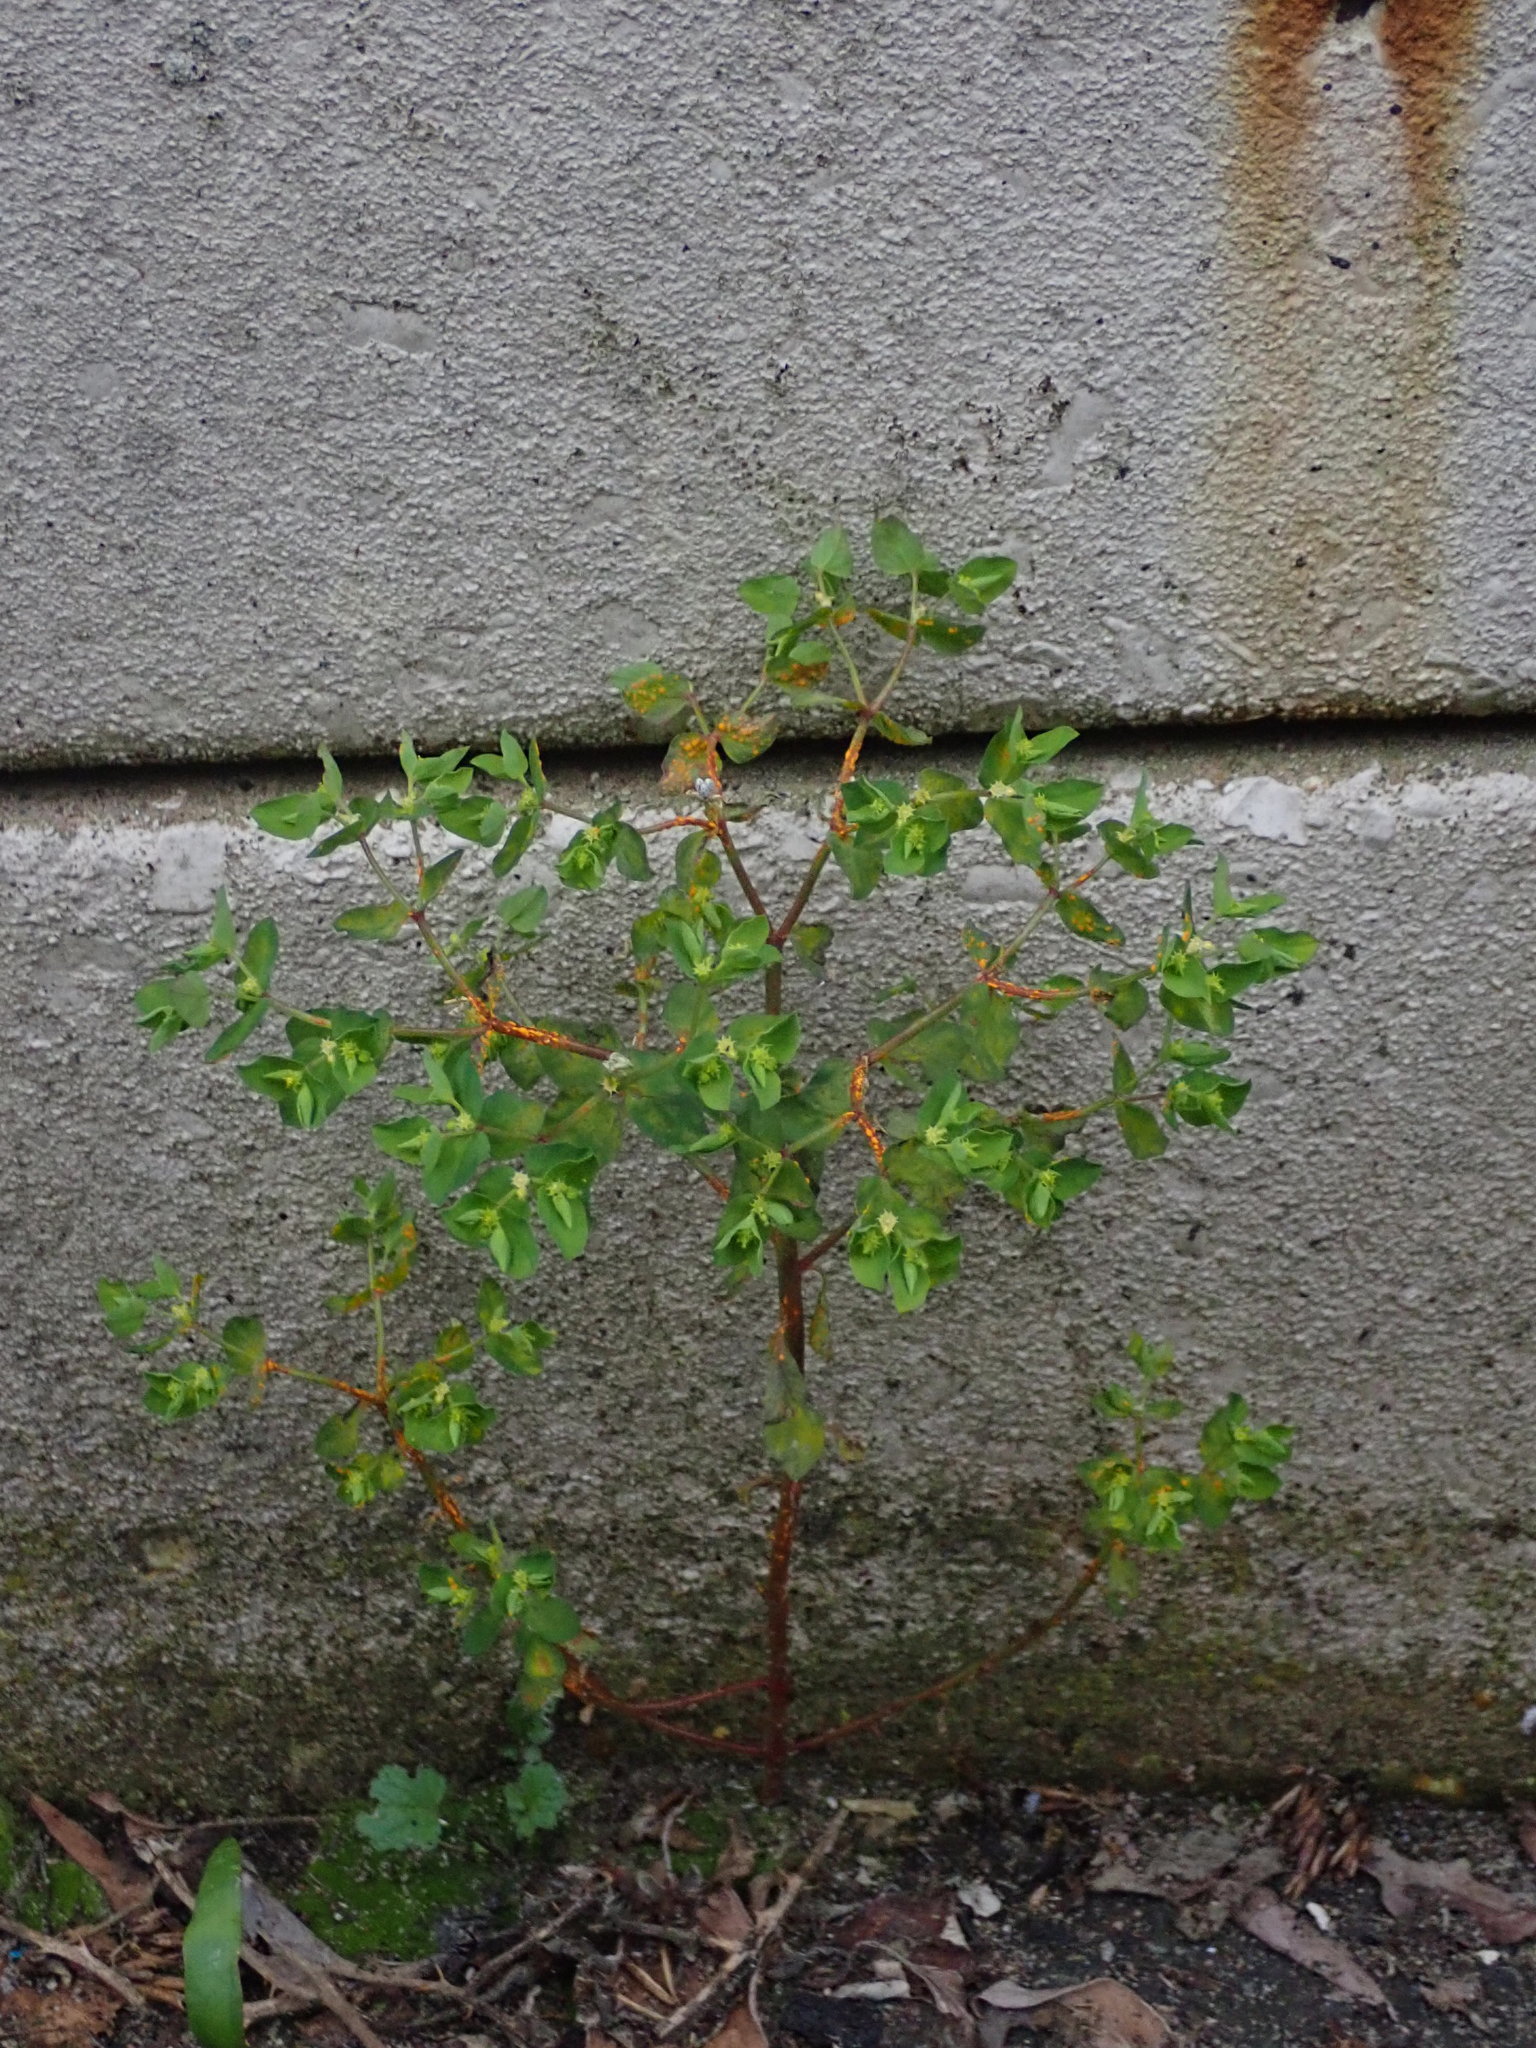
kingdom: Plantae
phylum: Tracheophyta
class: Magnoliopsida
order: Malpighiales
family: Euphorbiaceae
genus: Euphorbia
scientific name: Euphorbia peplus
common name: Petty spurge
